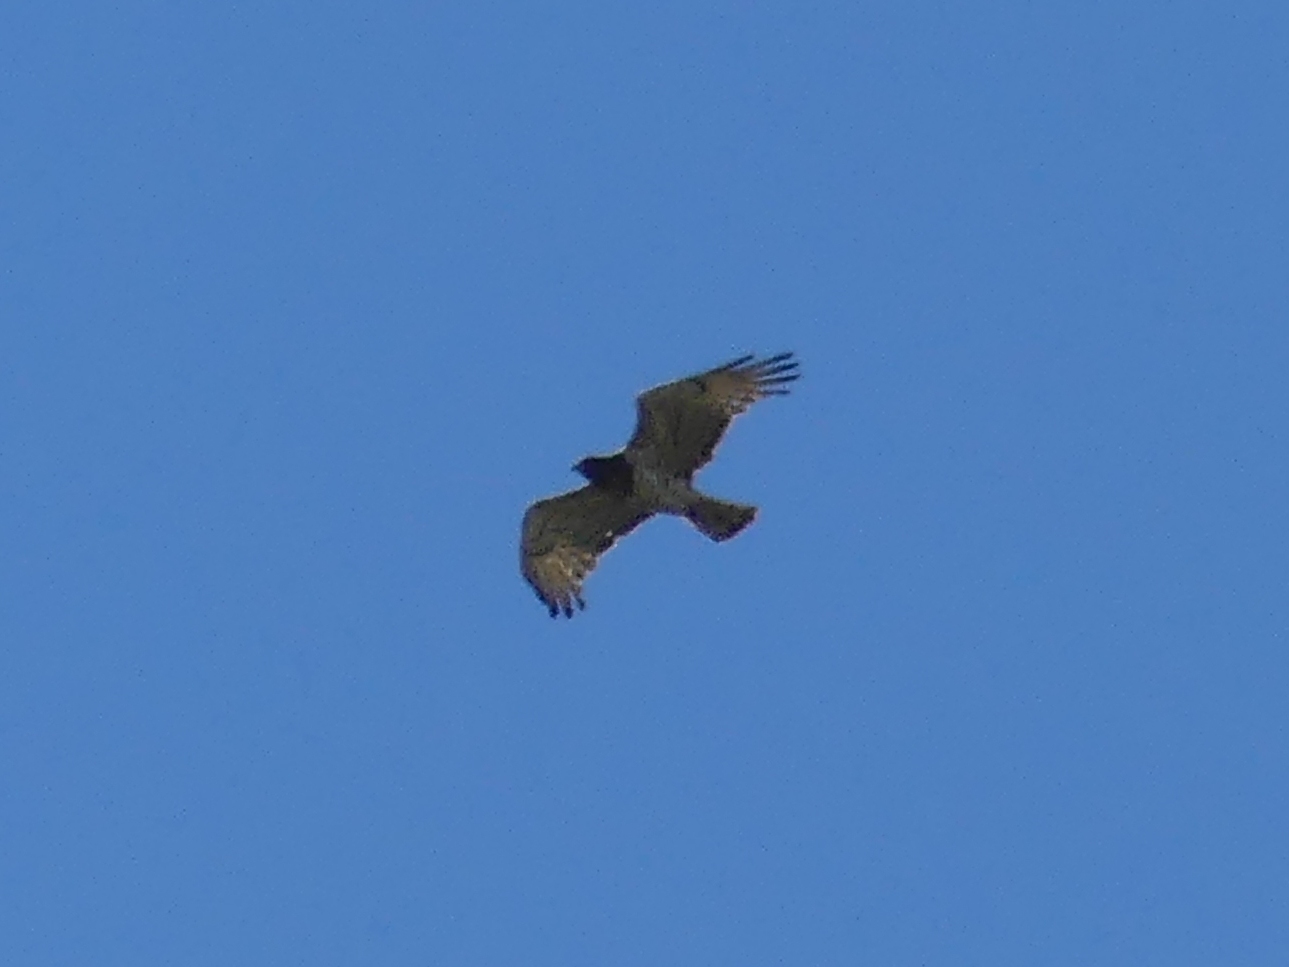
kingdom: Animalia
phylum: Chordata
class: Aves
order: Accipitriformes
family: Accipitridae
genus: Circaetus
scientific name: Circaetus gallicus
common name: Short-toed snake eagle
